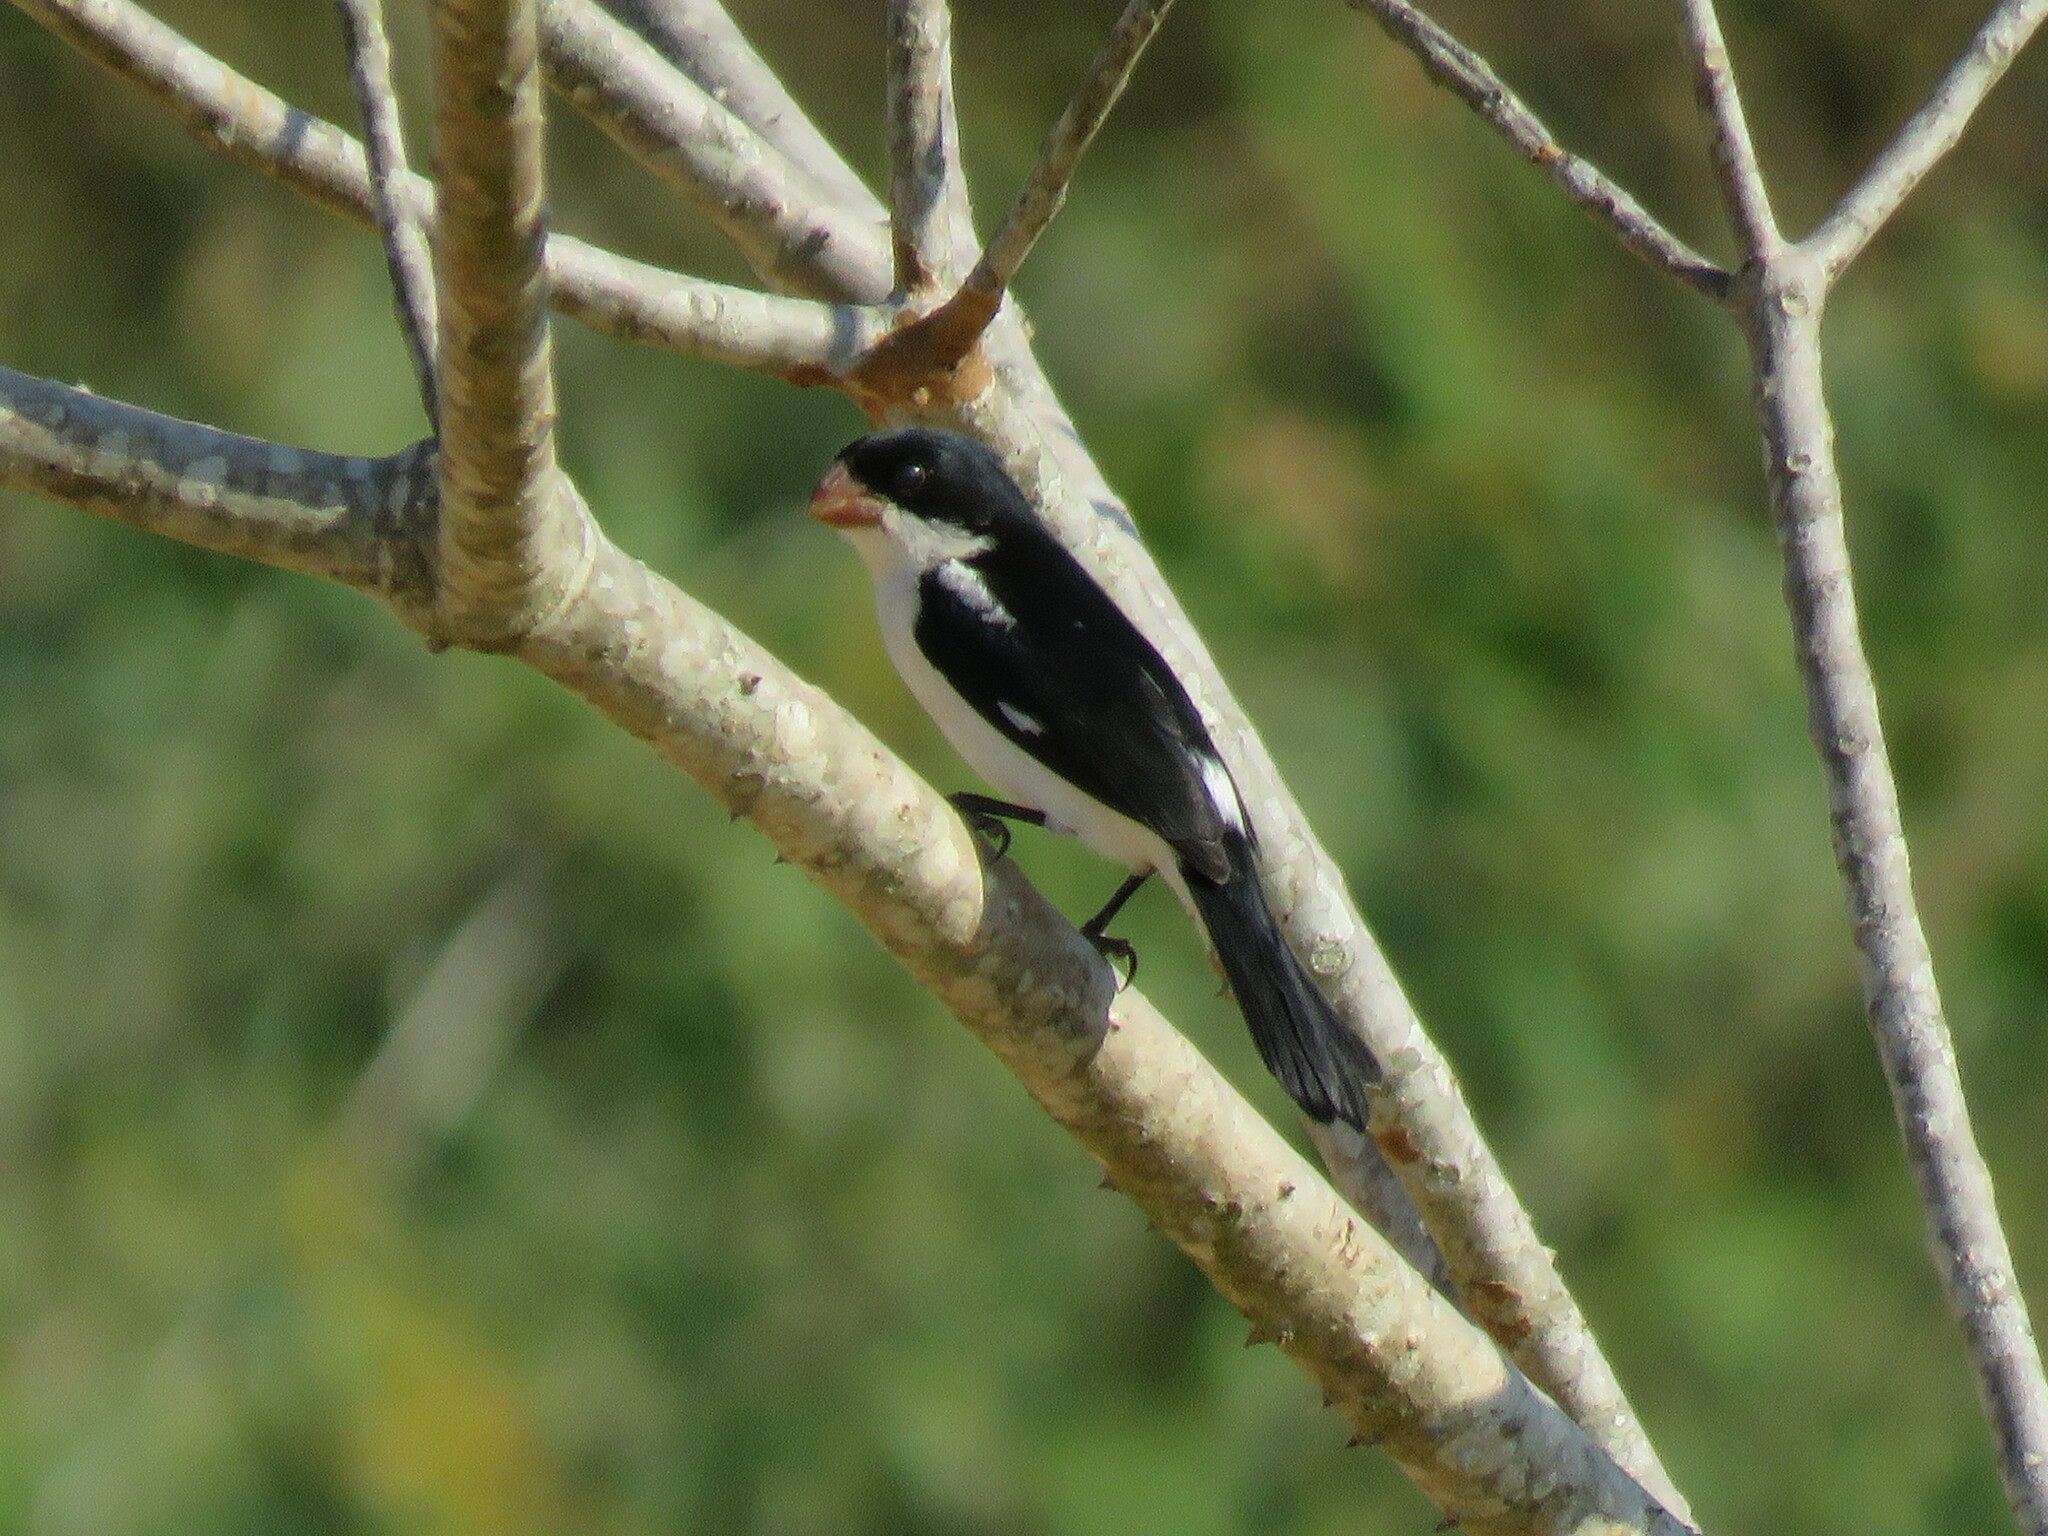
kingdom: Animalia
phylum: Chordata
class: Aves
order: Passeriformes
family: Thraupidae
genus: Sporophila
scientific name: Sporophila leucoptera
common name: White-bellied seedeater
